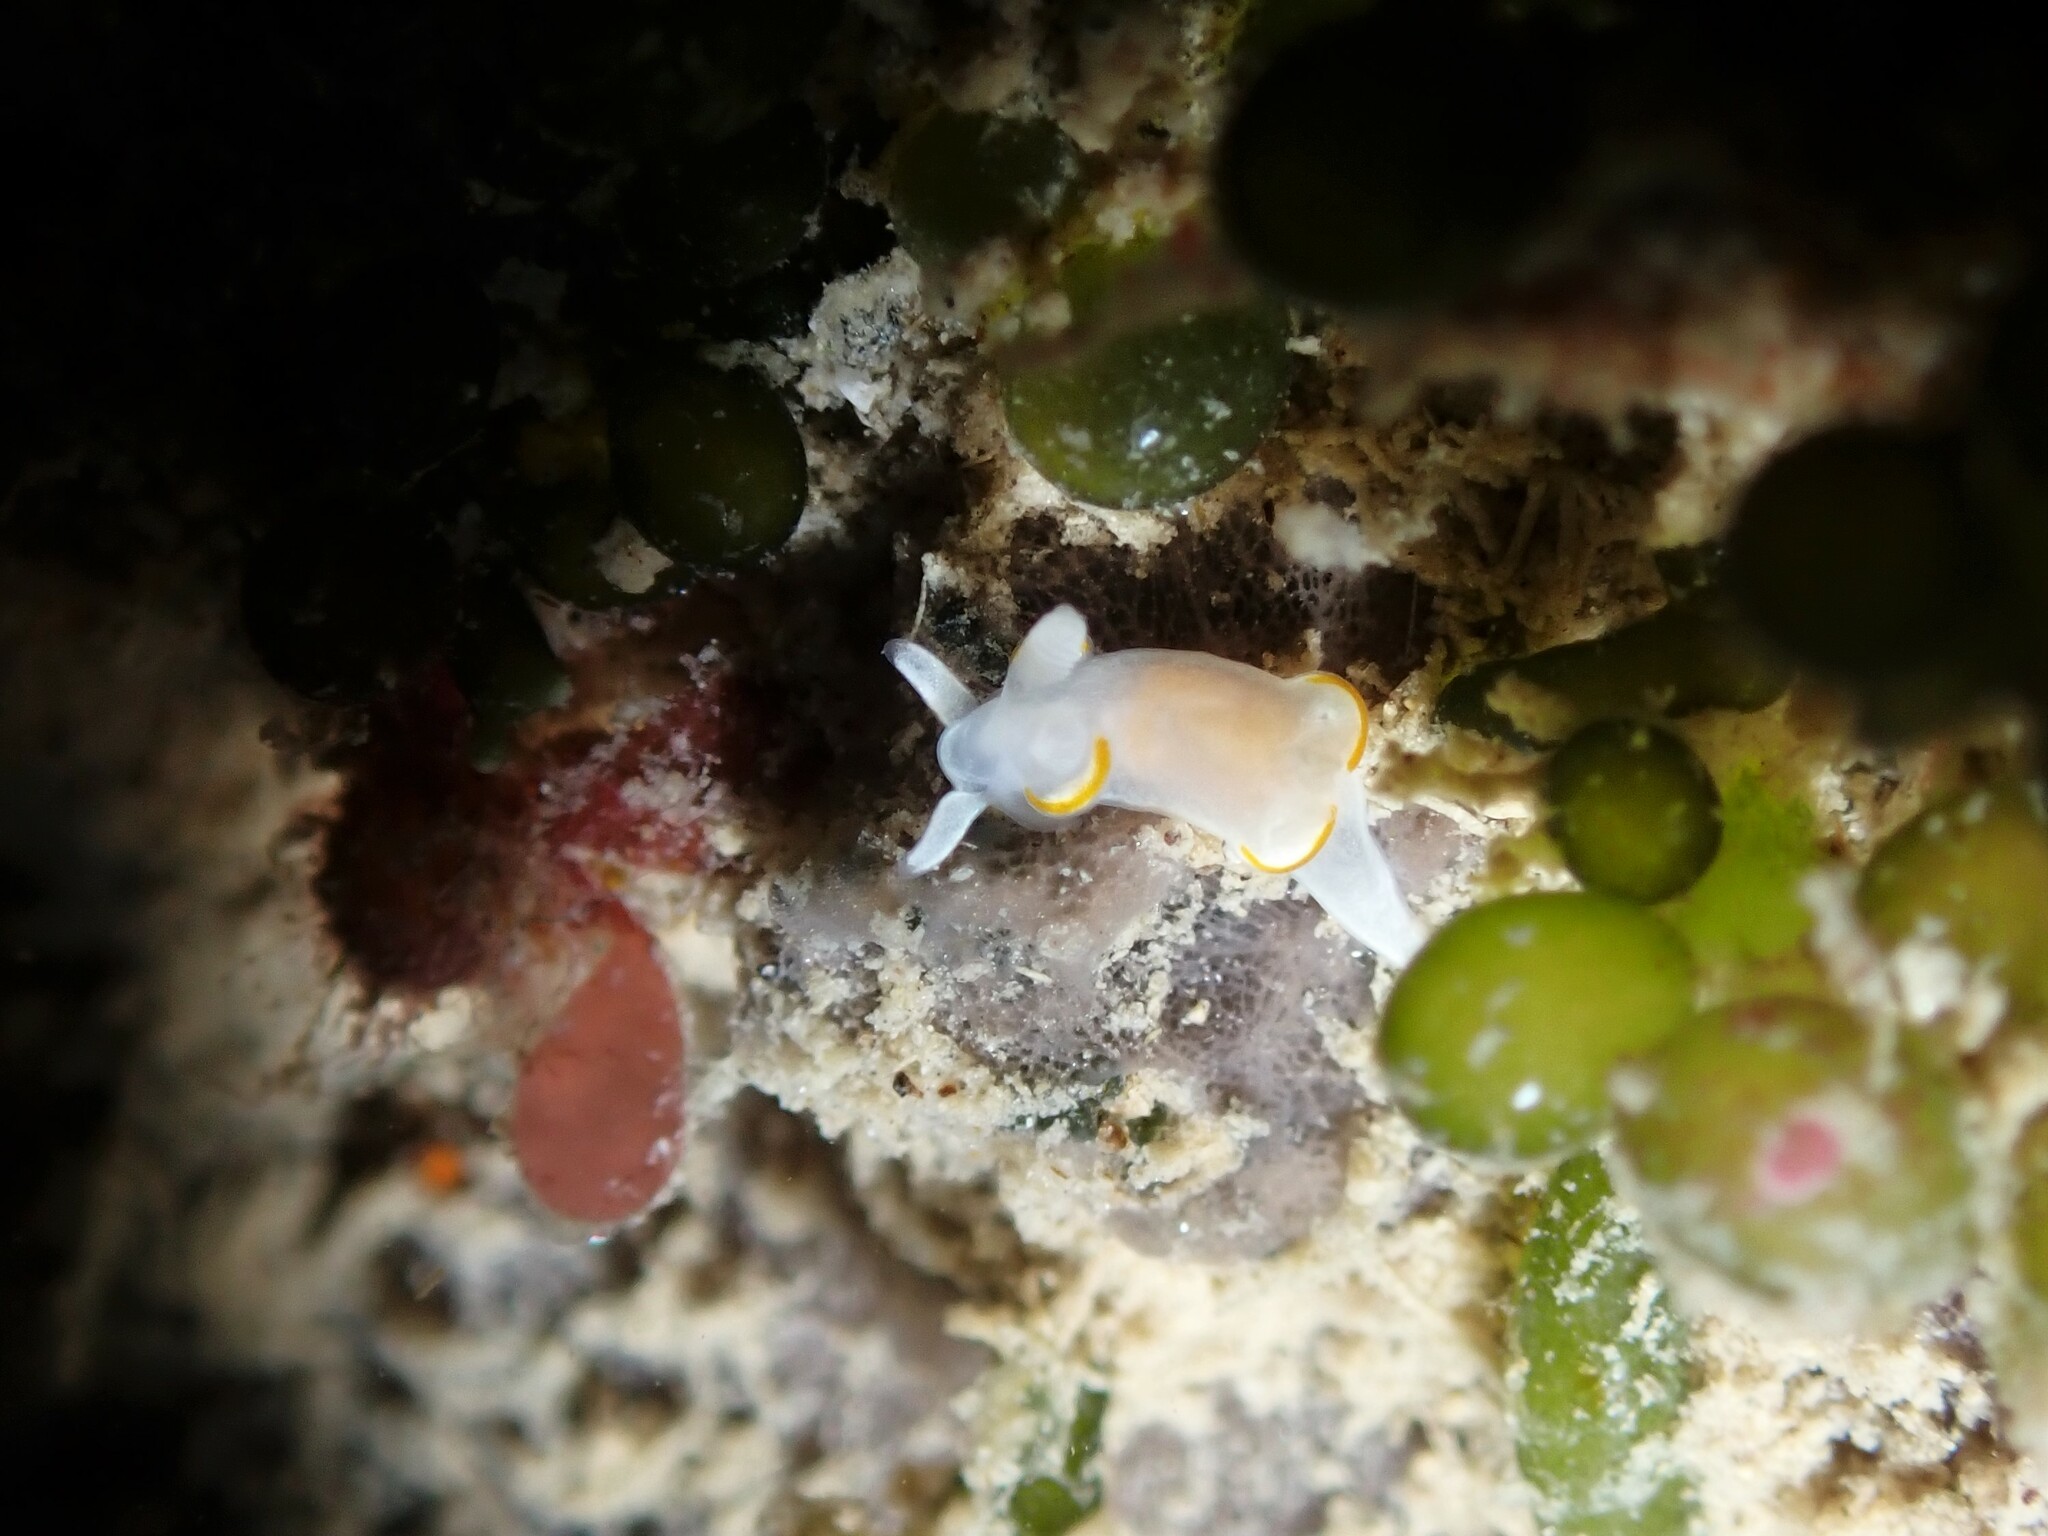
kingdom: Animalia
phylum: Mollusca
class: Gastropoda
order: Nudibranchia
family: Goniodorididae
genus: Trapania
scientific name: Trapania rudmani
